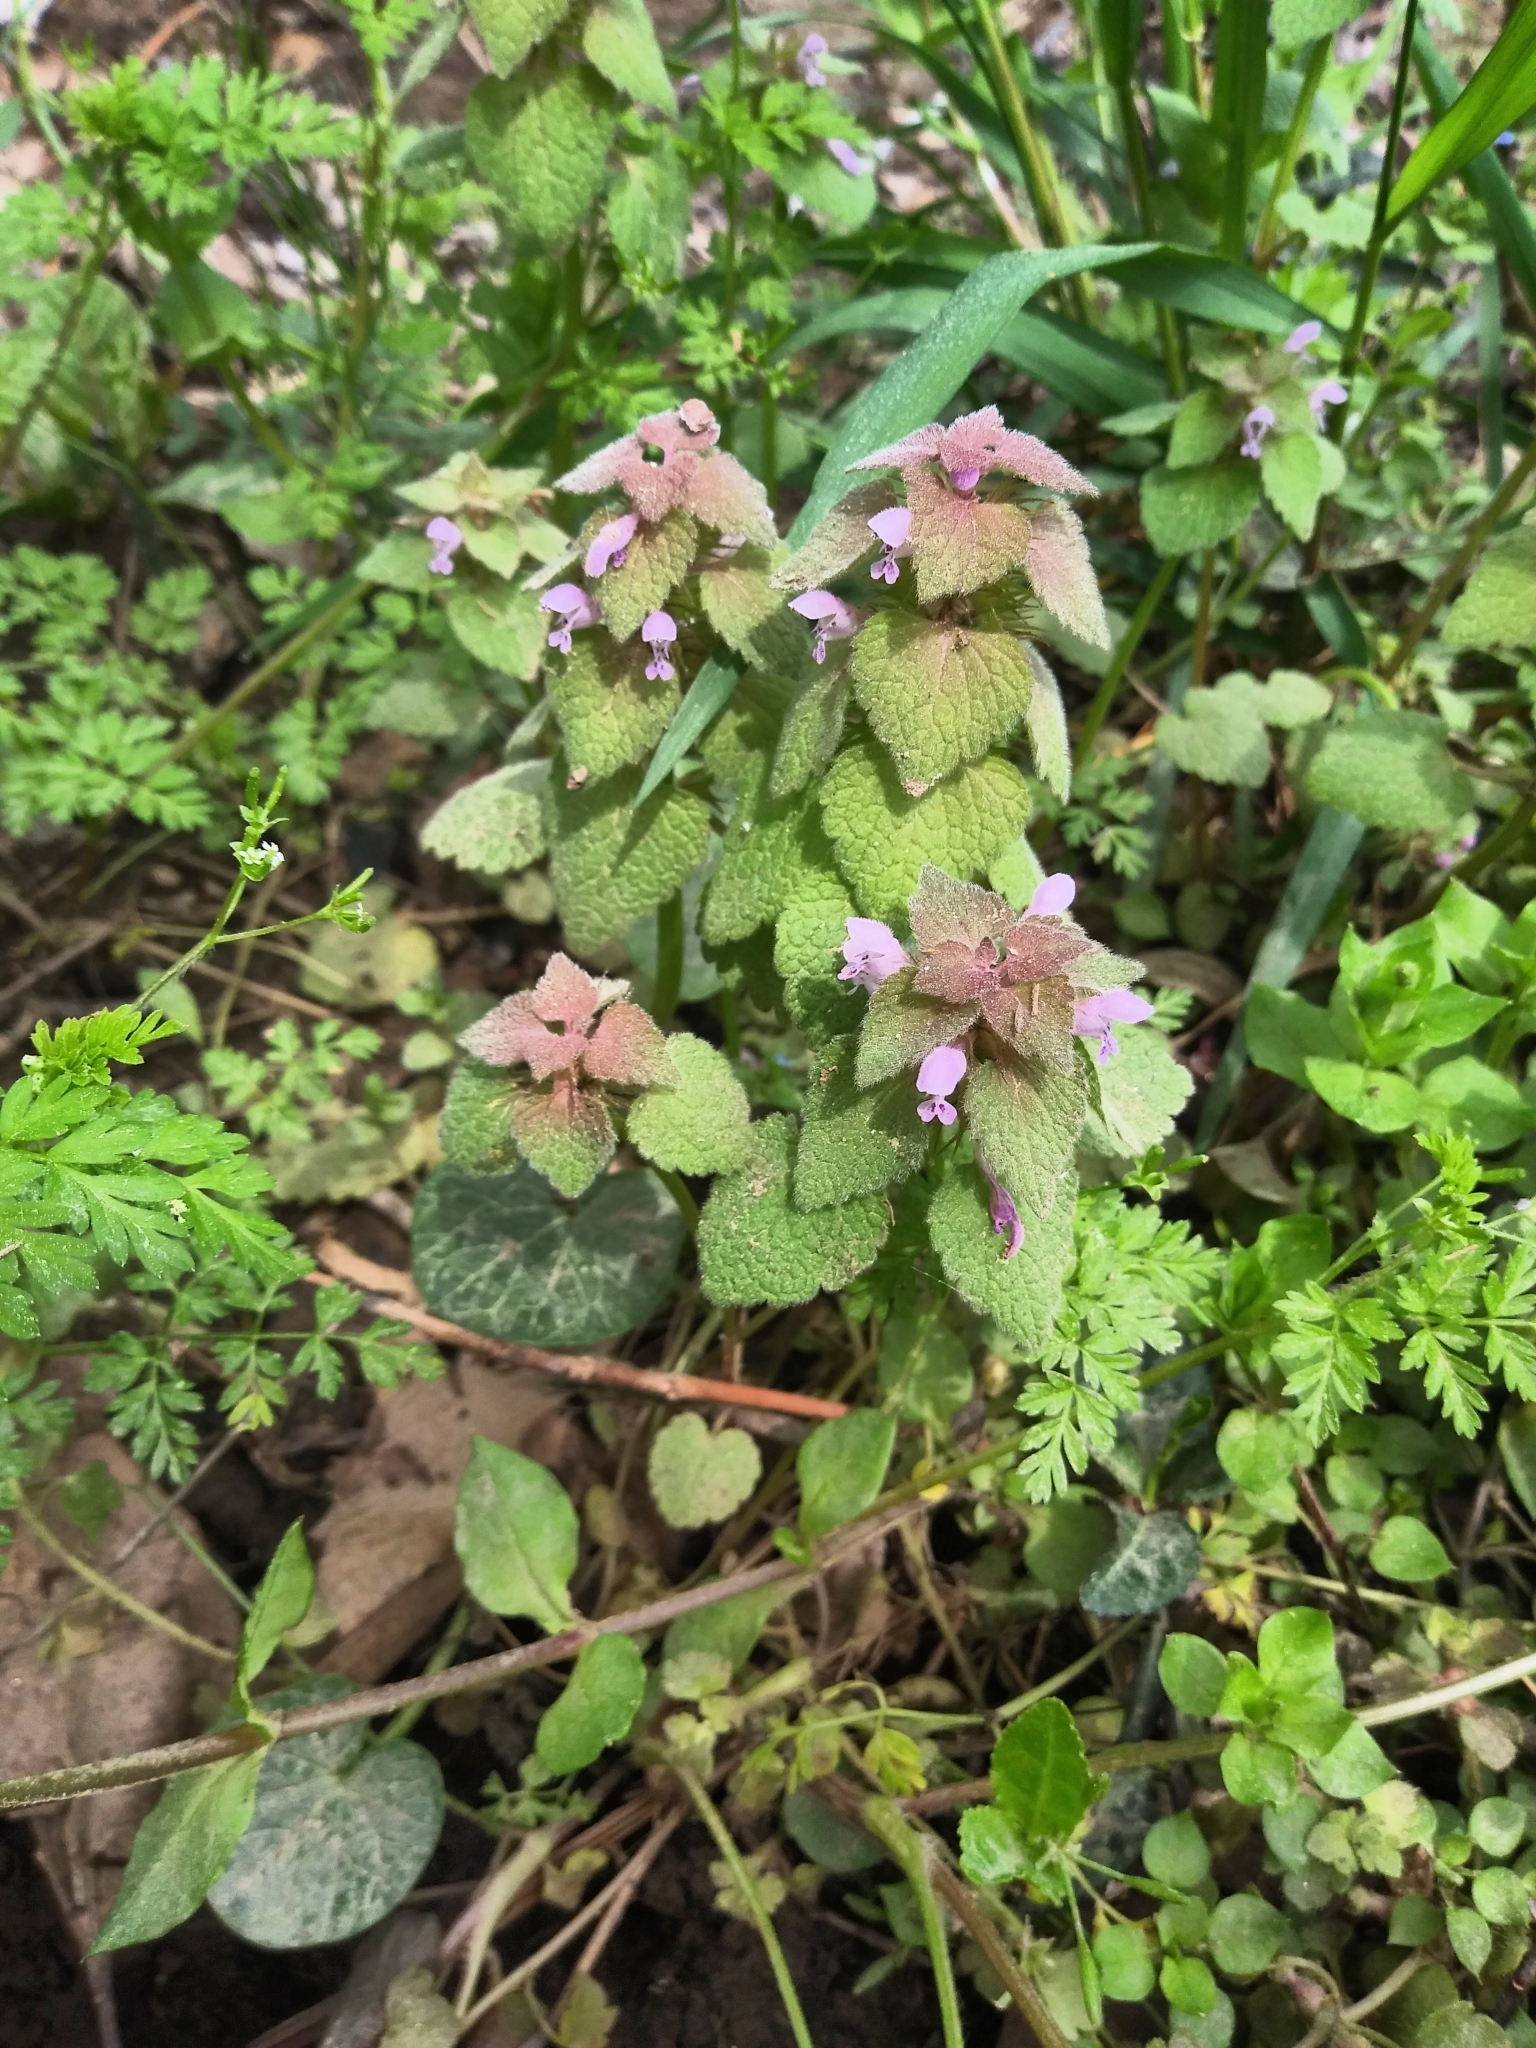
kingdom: Plantae
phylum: Tracheophyta
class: Magnoliopsida
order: Lamiales
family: Lamiaceae
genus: Lamium
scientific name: Lamium purpureum
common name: Red dead-nettle
